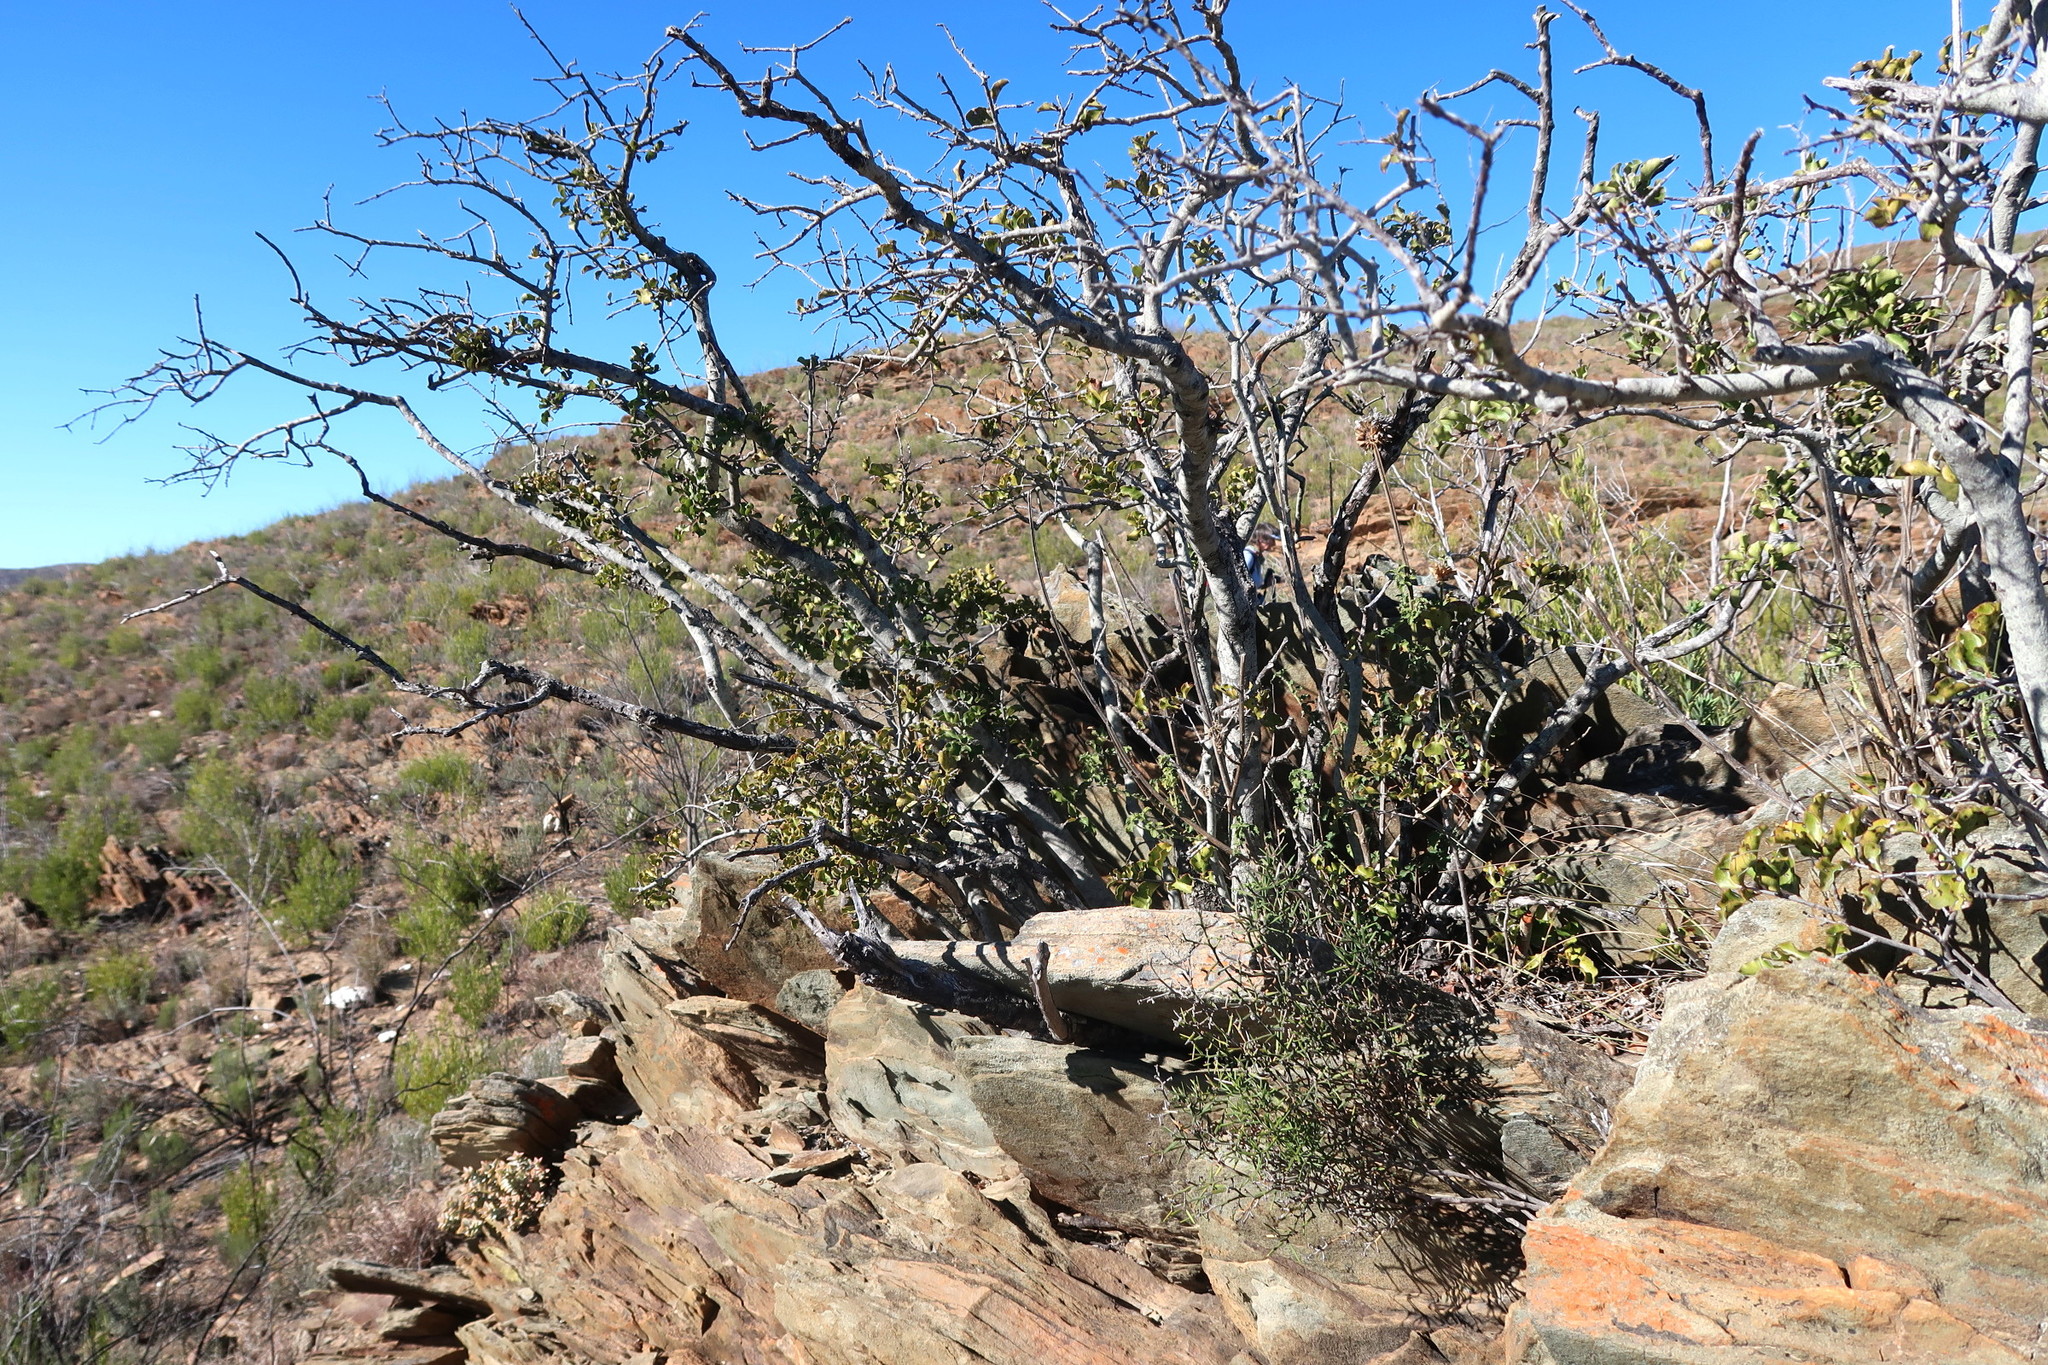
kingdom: Plantae
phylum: Tracheophyta
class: Magnoliopsida
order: Ericales
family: Ebenaceae
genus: Euclea
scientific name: Euclea undulata
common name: Small-leaved guarri
